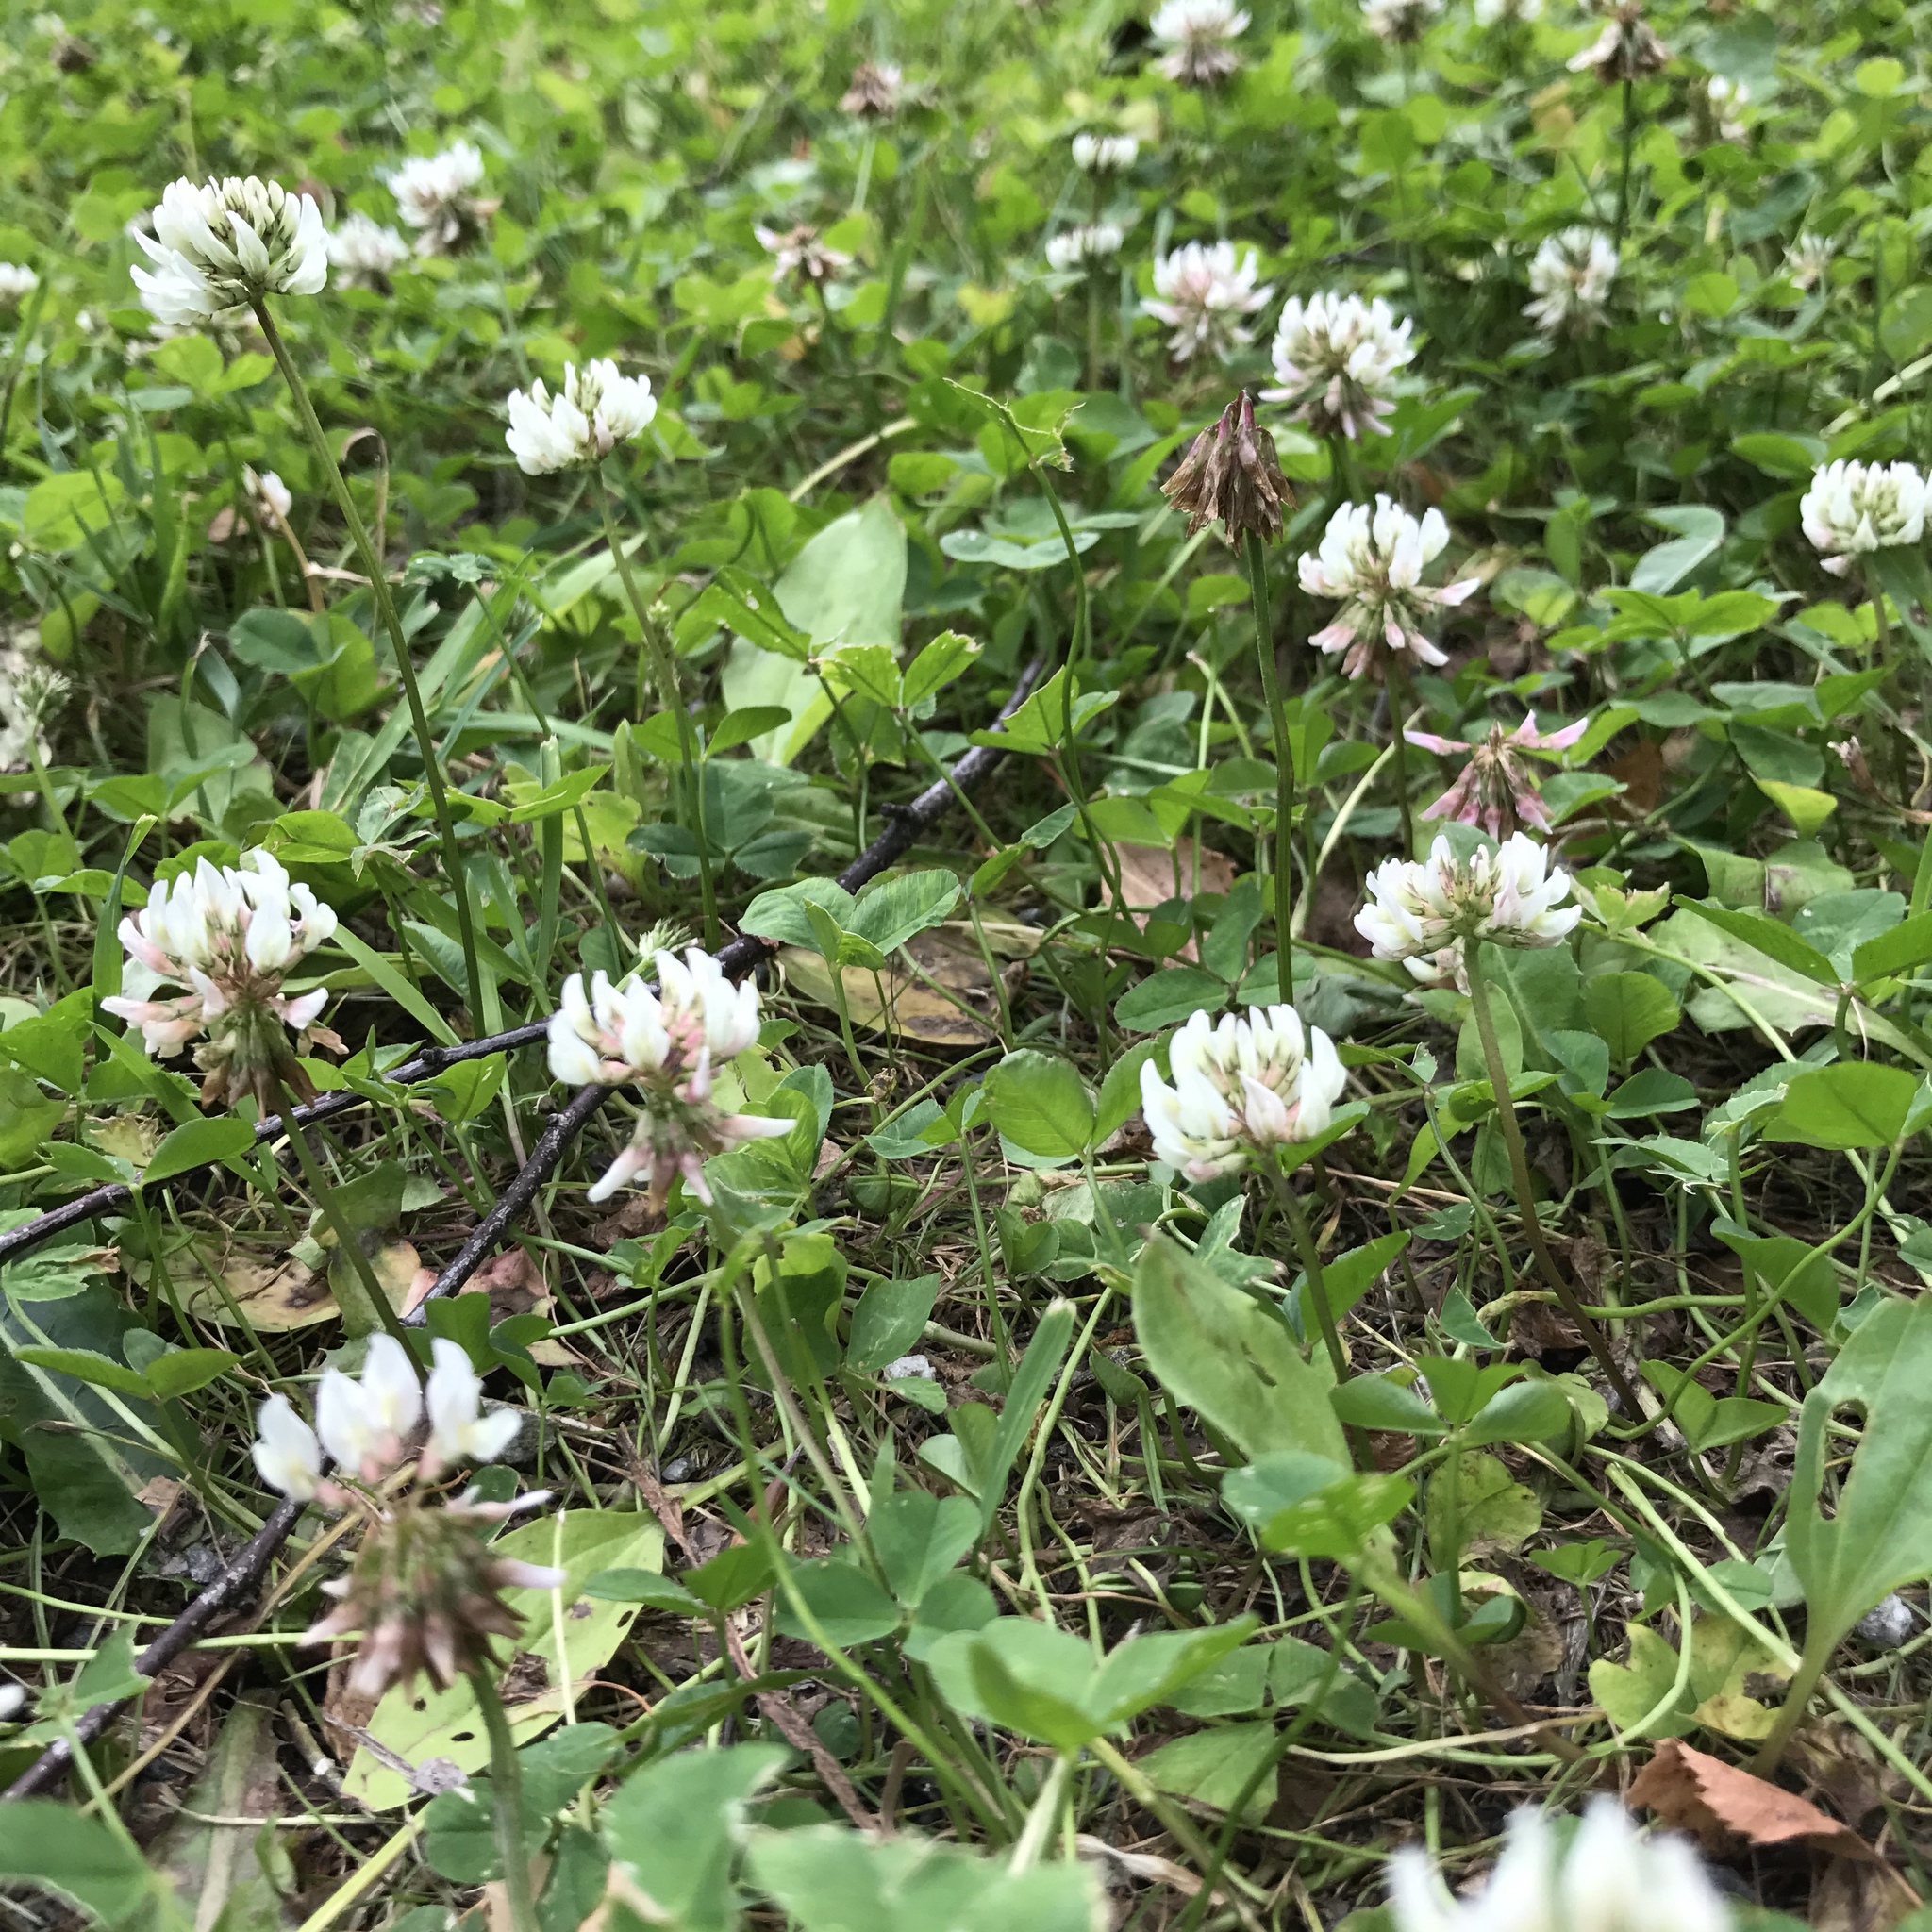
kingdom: Plantae
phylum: Tracheophyta
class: Magnoliopsida
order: Fabales
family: Fabaceae
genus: Trifolium
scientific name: Trifolium repens
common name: White clover
